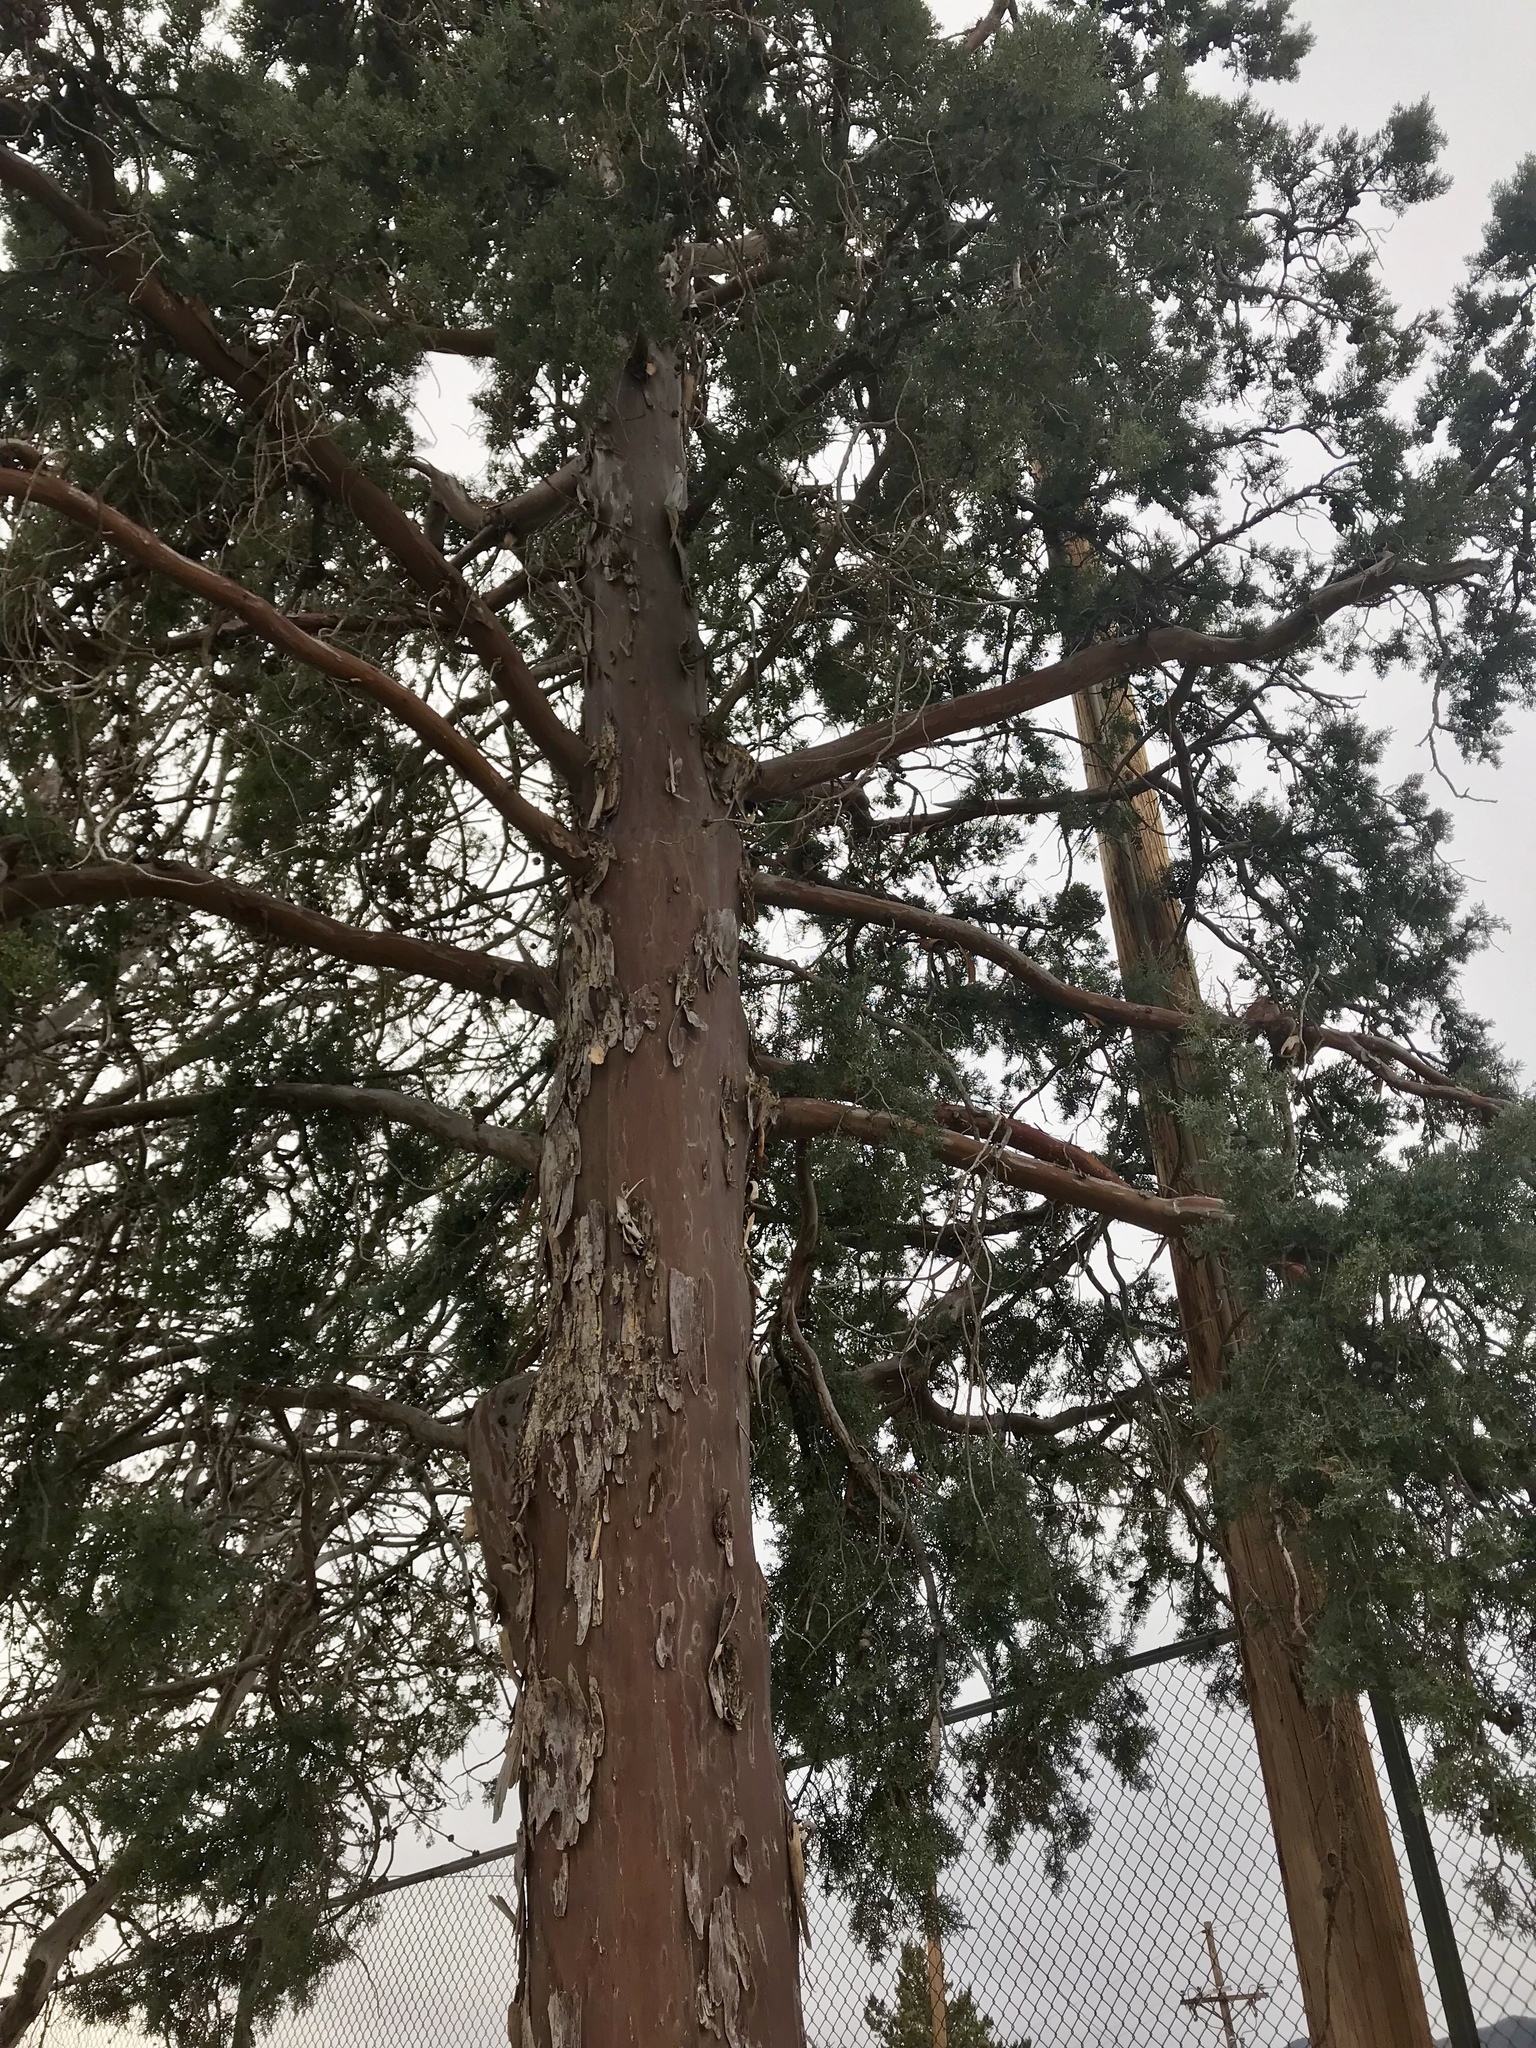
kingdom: Plantae
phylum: Tracheophyta
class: Pinopsida
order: Pinales
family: Cupressaceae
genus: Cupressus
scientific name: Cupressus arizonica
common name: Arizona cypress
